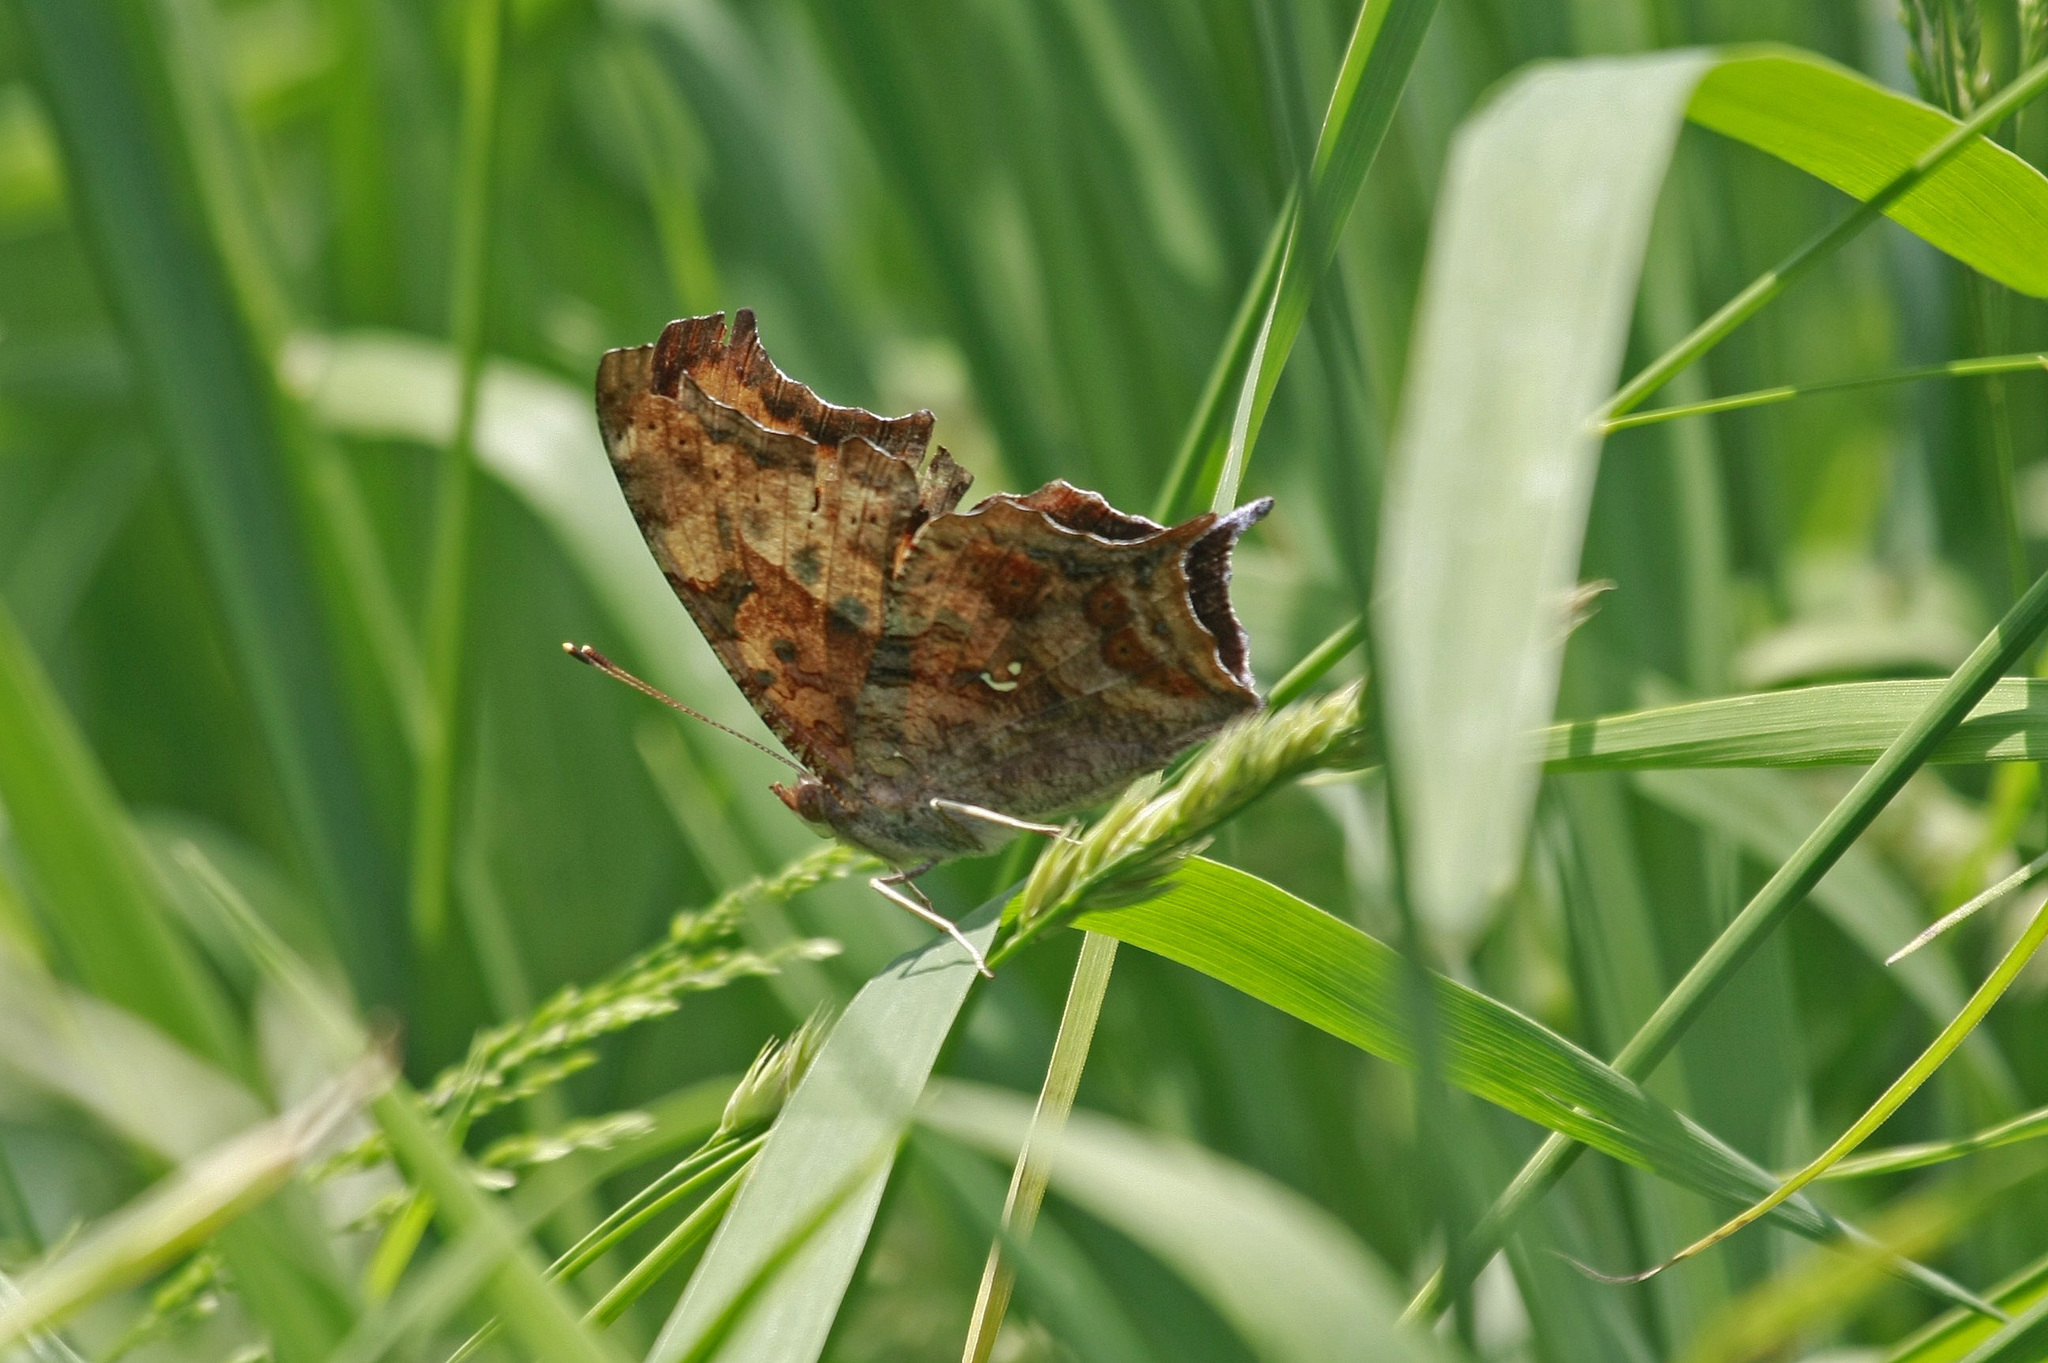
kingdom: Animalia
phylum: Arthropoda
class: Insecta
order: Lepidoptera
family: Nymphalidae
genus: Polygonia
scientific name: Polygonia interrogationis
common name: Question mark
